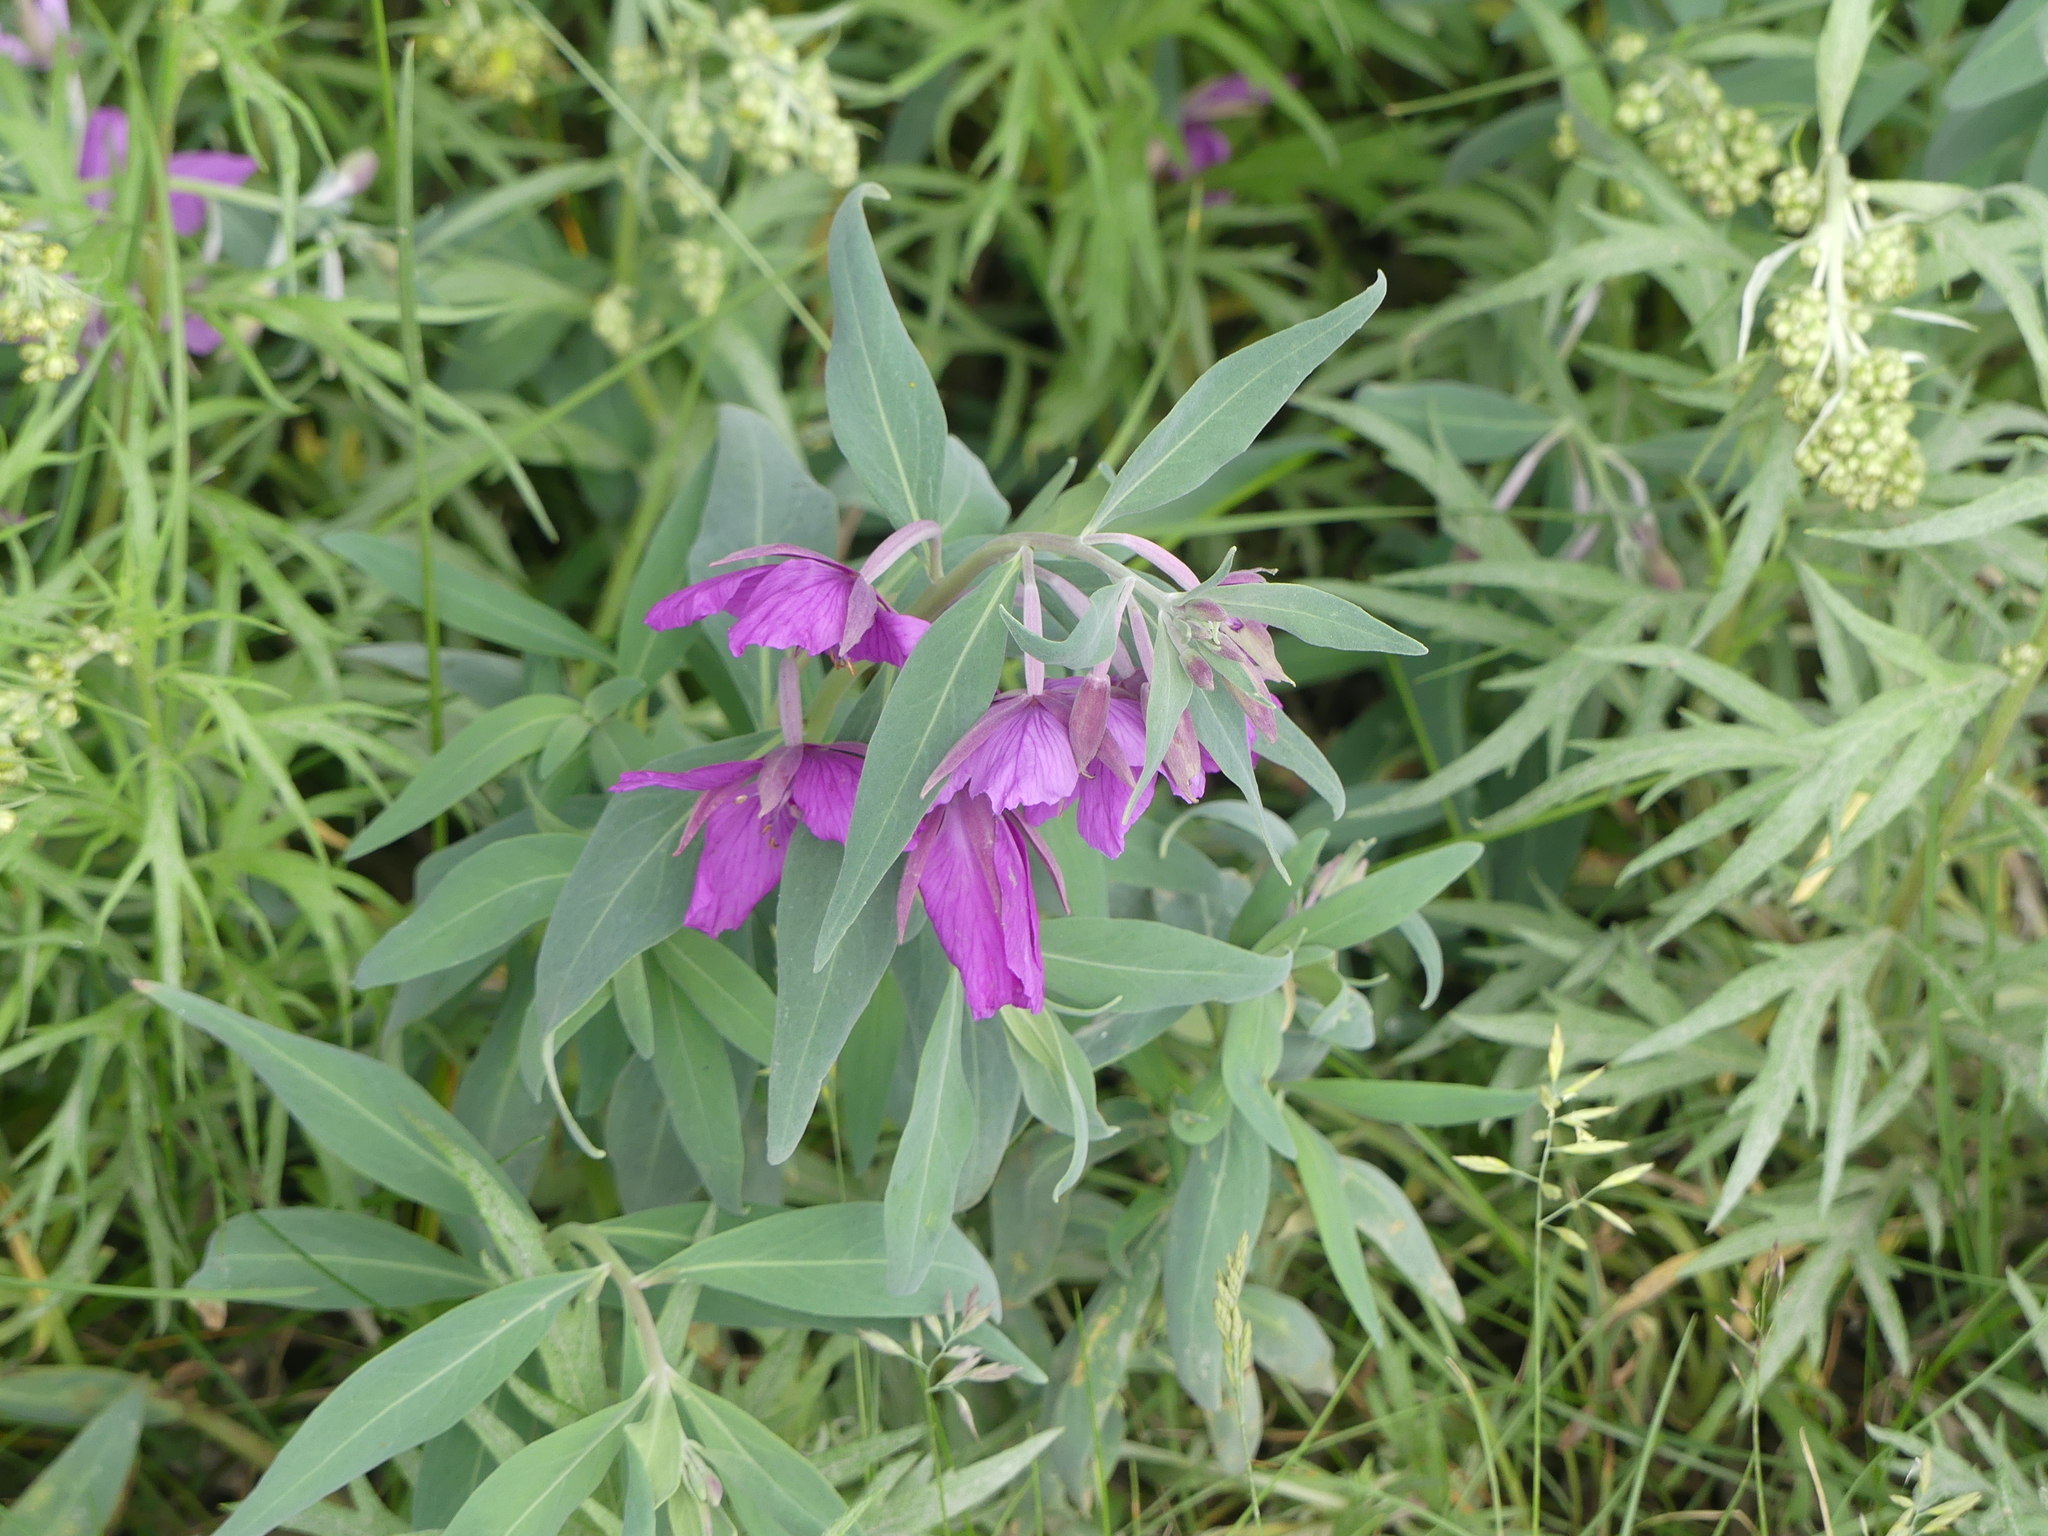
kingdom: Plantae
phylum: Tracheophyta
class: Magnoliopsida
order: Myrtales
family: Onagraceae
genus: Chamaenerion
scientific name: Chamaenerion latifolium
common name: Dwarf fireweed
